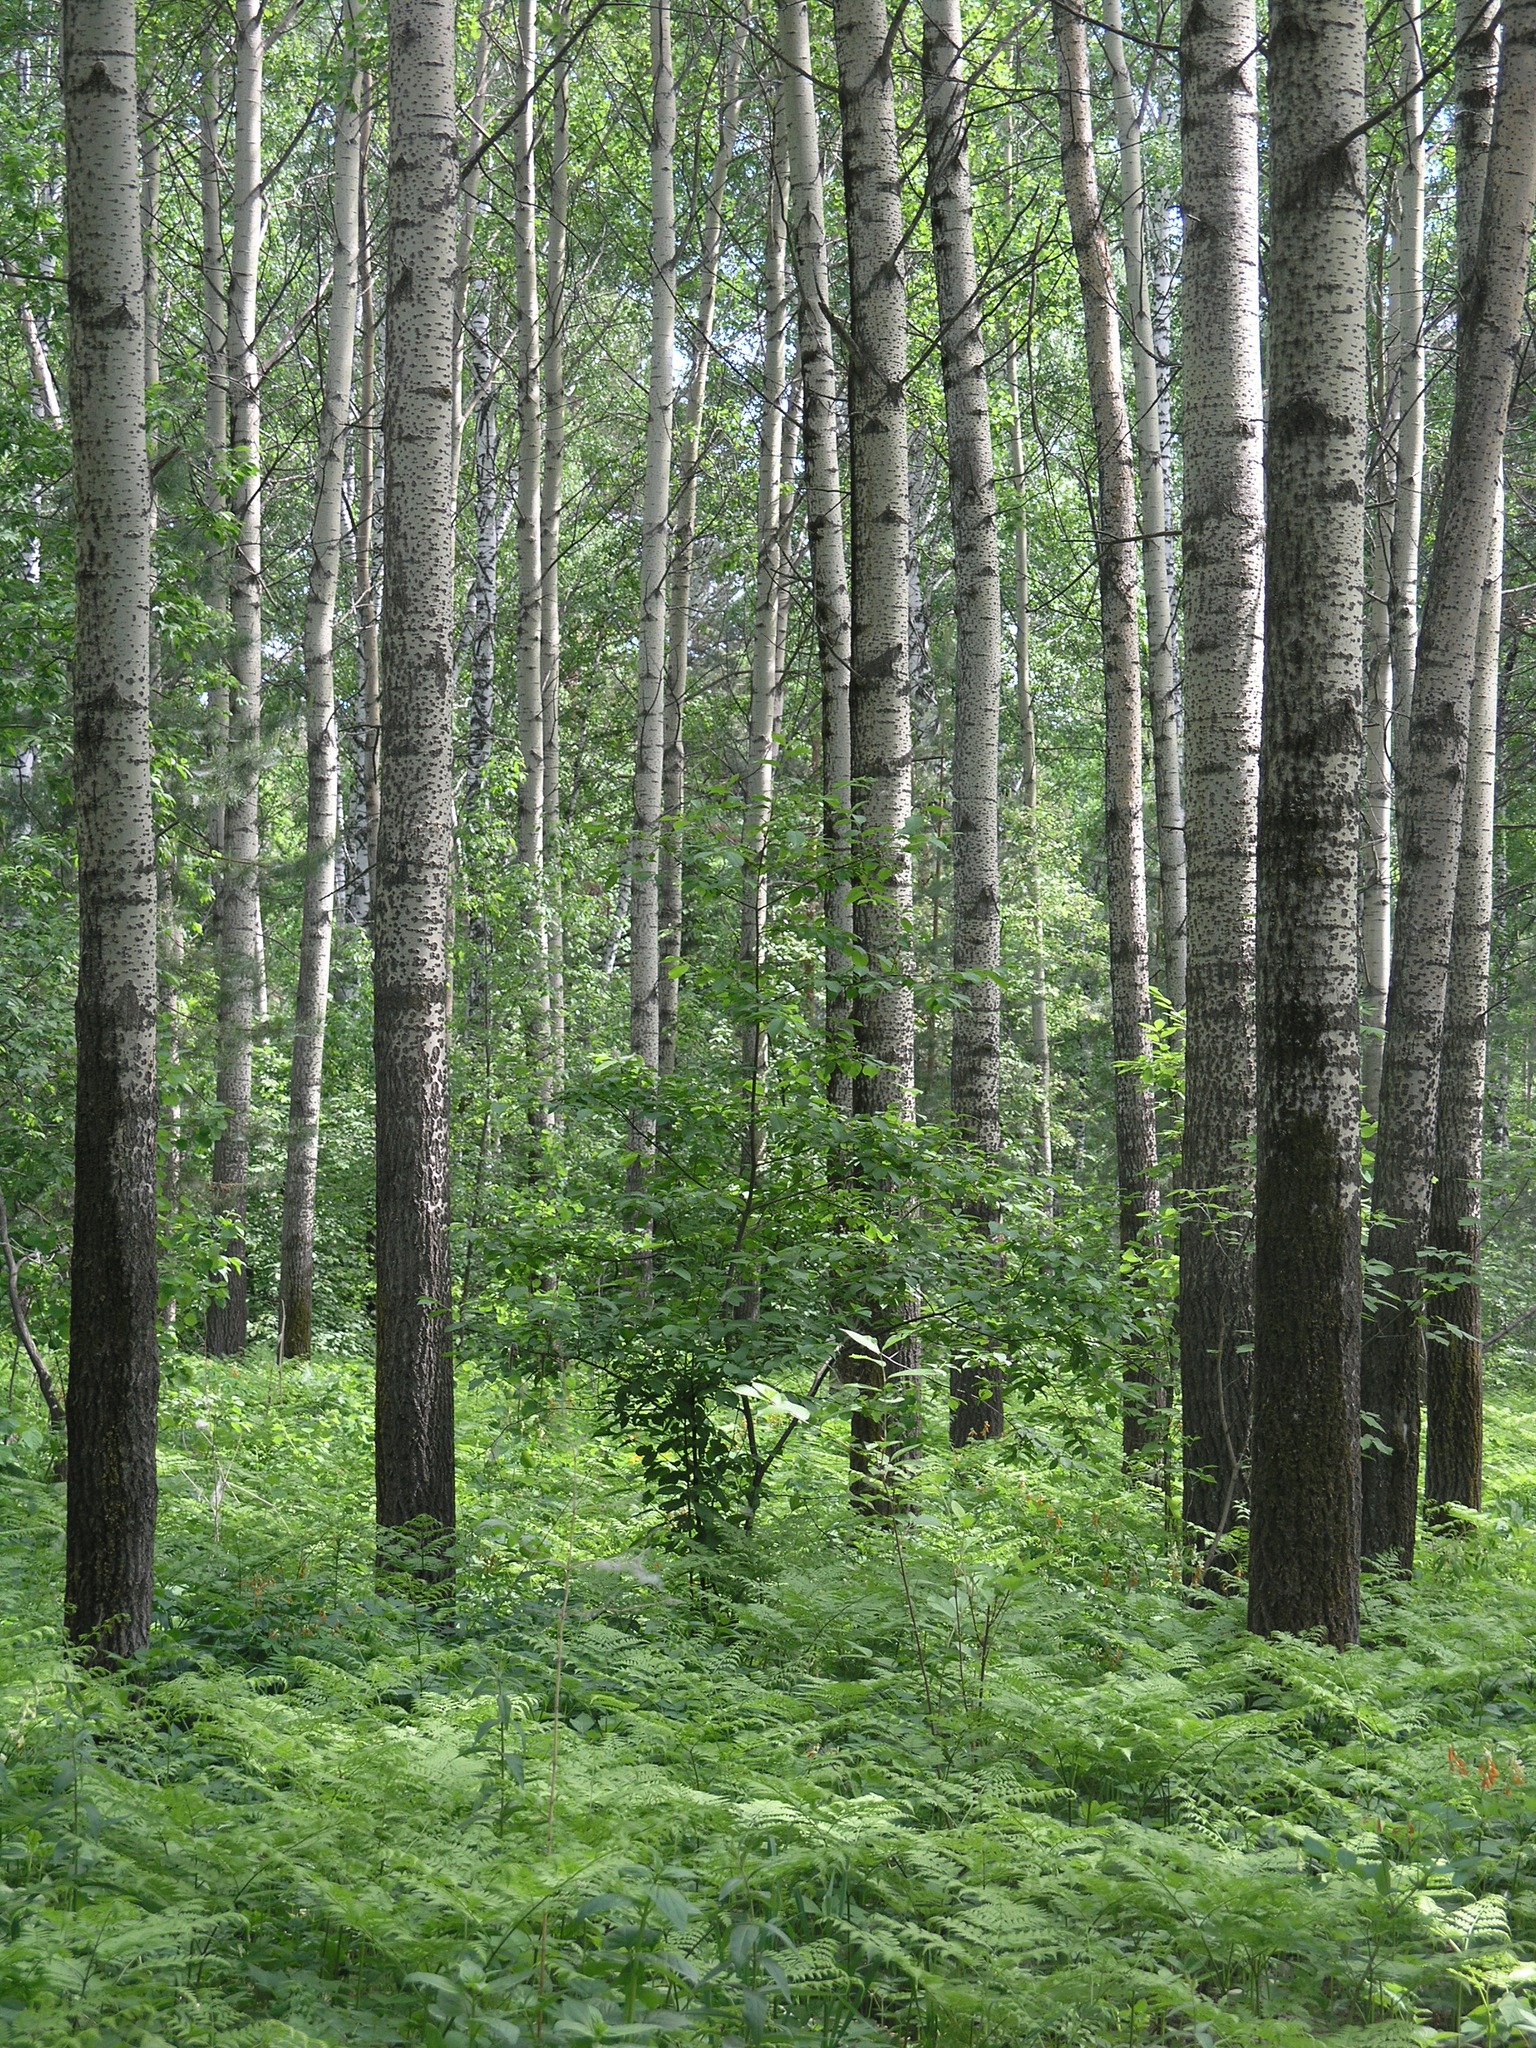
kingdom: Plantae
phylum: Tracheophyta
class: Magnoliopsida
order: Malpighiales
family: Salicaceae
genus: Populus
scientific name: Populus tremula
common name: European aspen
